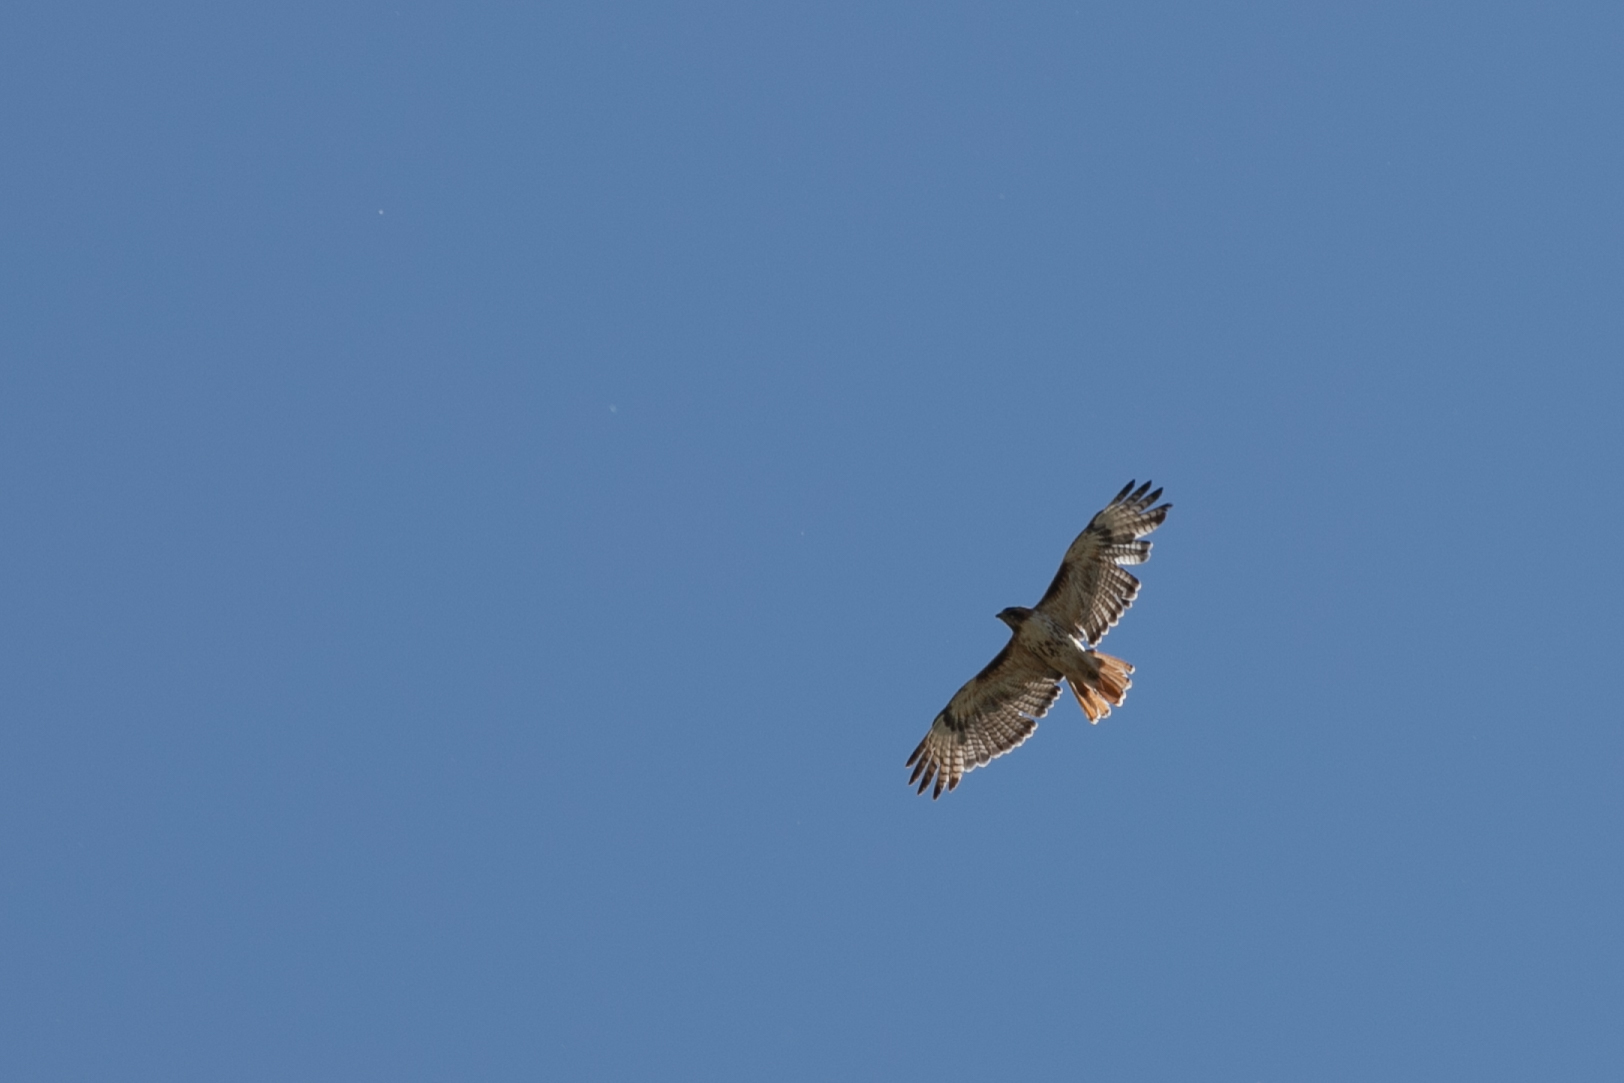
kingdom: Animalia
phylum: Chordata
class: Aves
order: Accipitriformes
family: Accipitridae
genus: Buteo
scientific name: Buteo jamaicensis
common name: Red-tailed hawk
